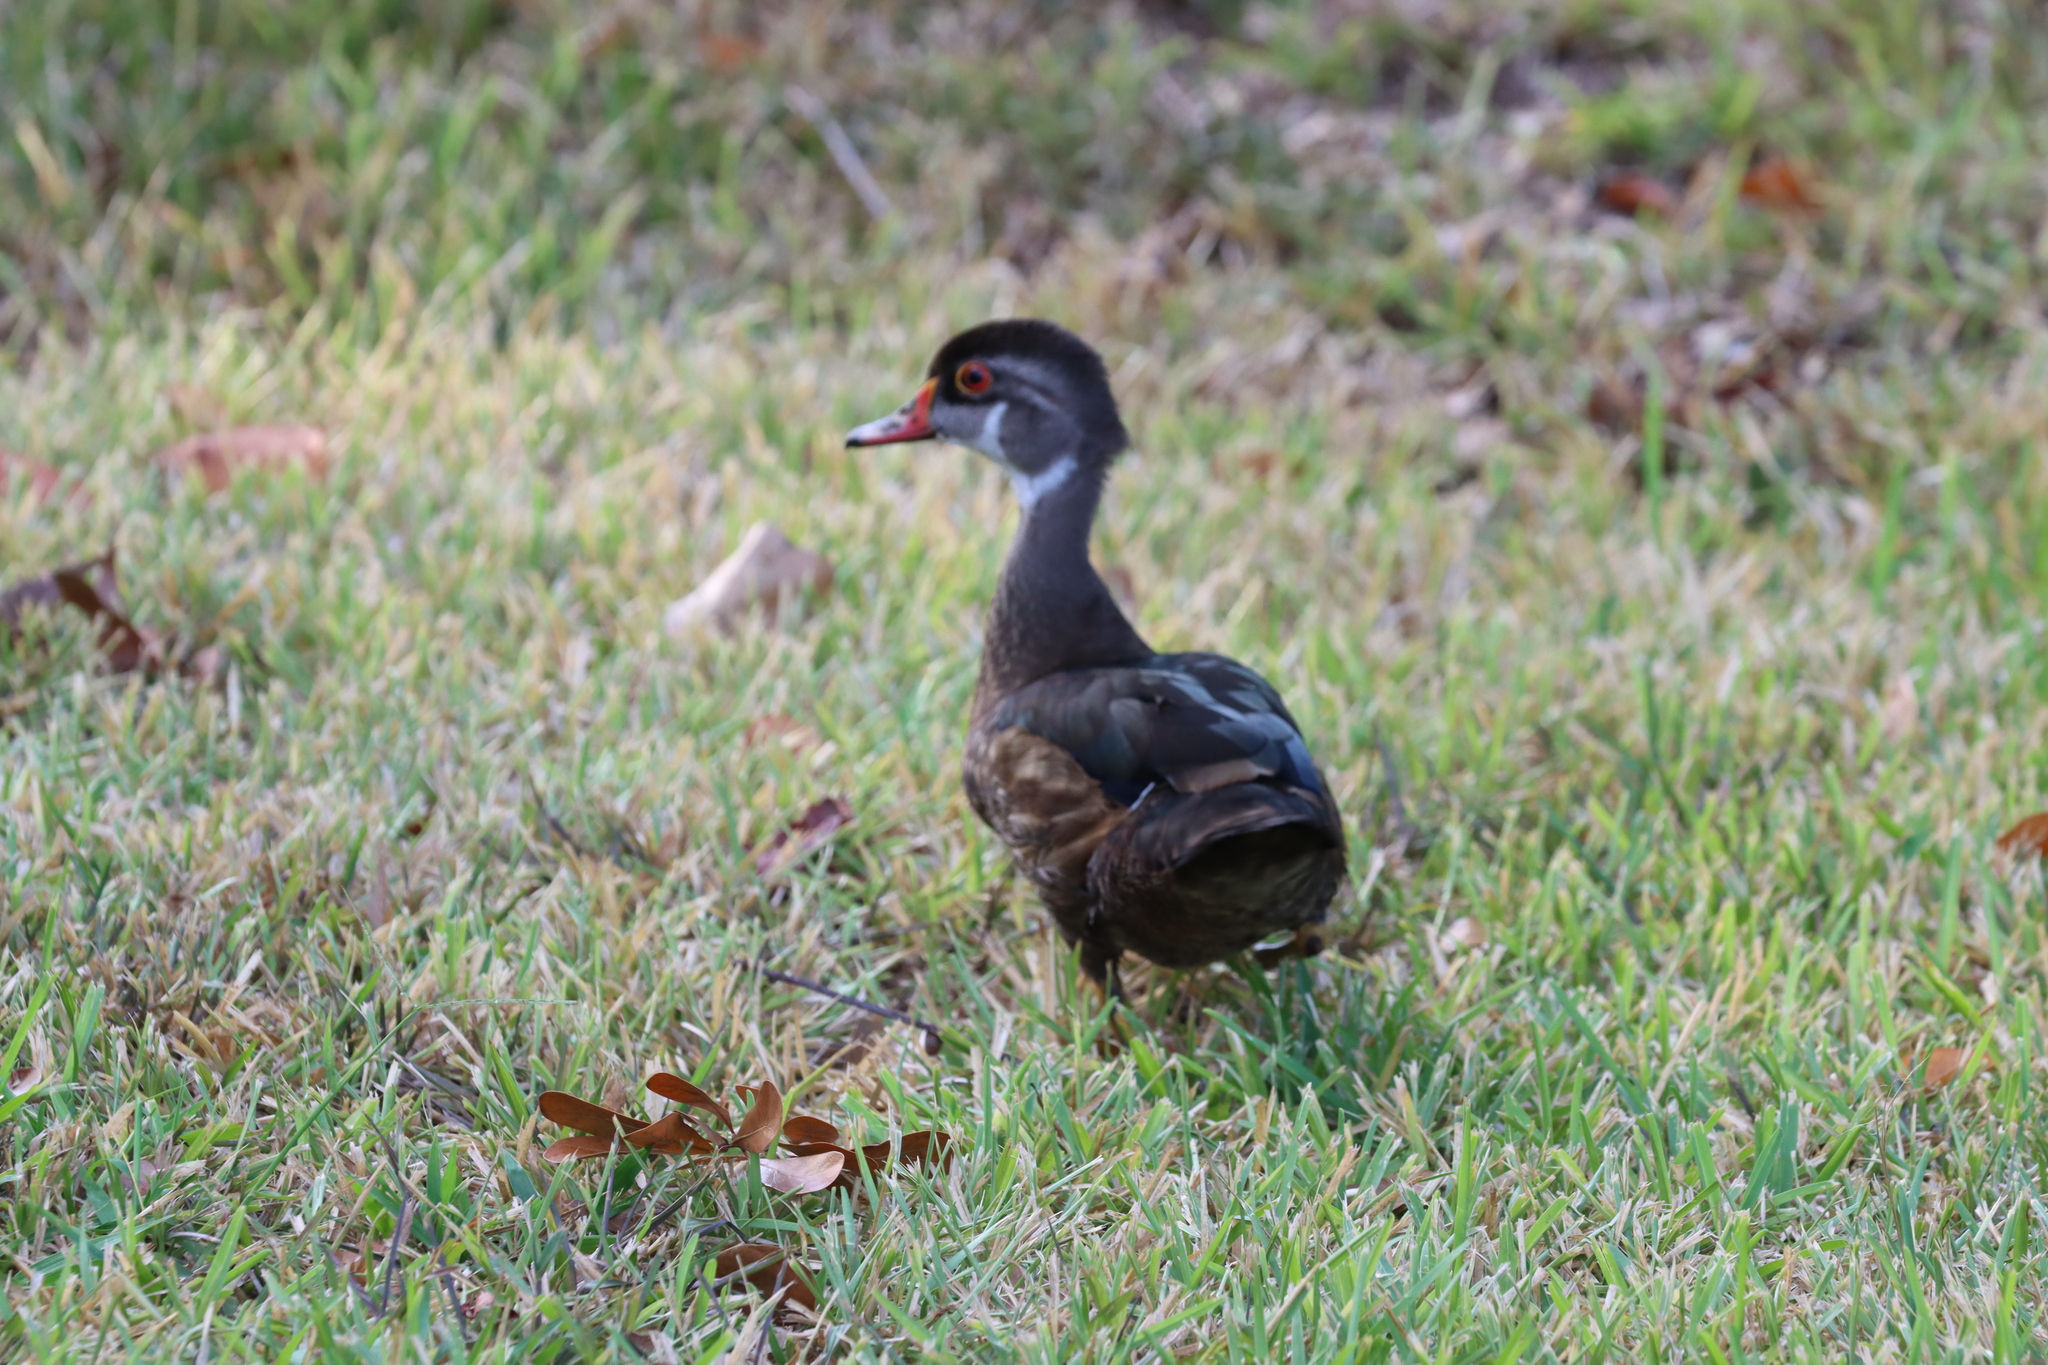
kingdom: Animalia
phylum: Chordata
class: Aves
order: Anseriformes
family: Anatidae
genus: Aix
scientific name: Aix sponsa
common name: Wood duck
